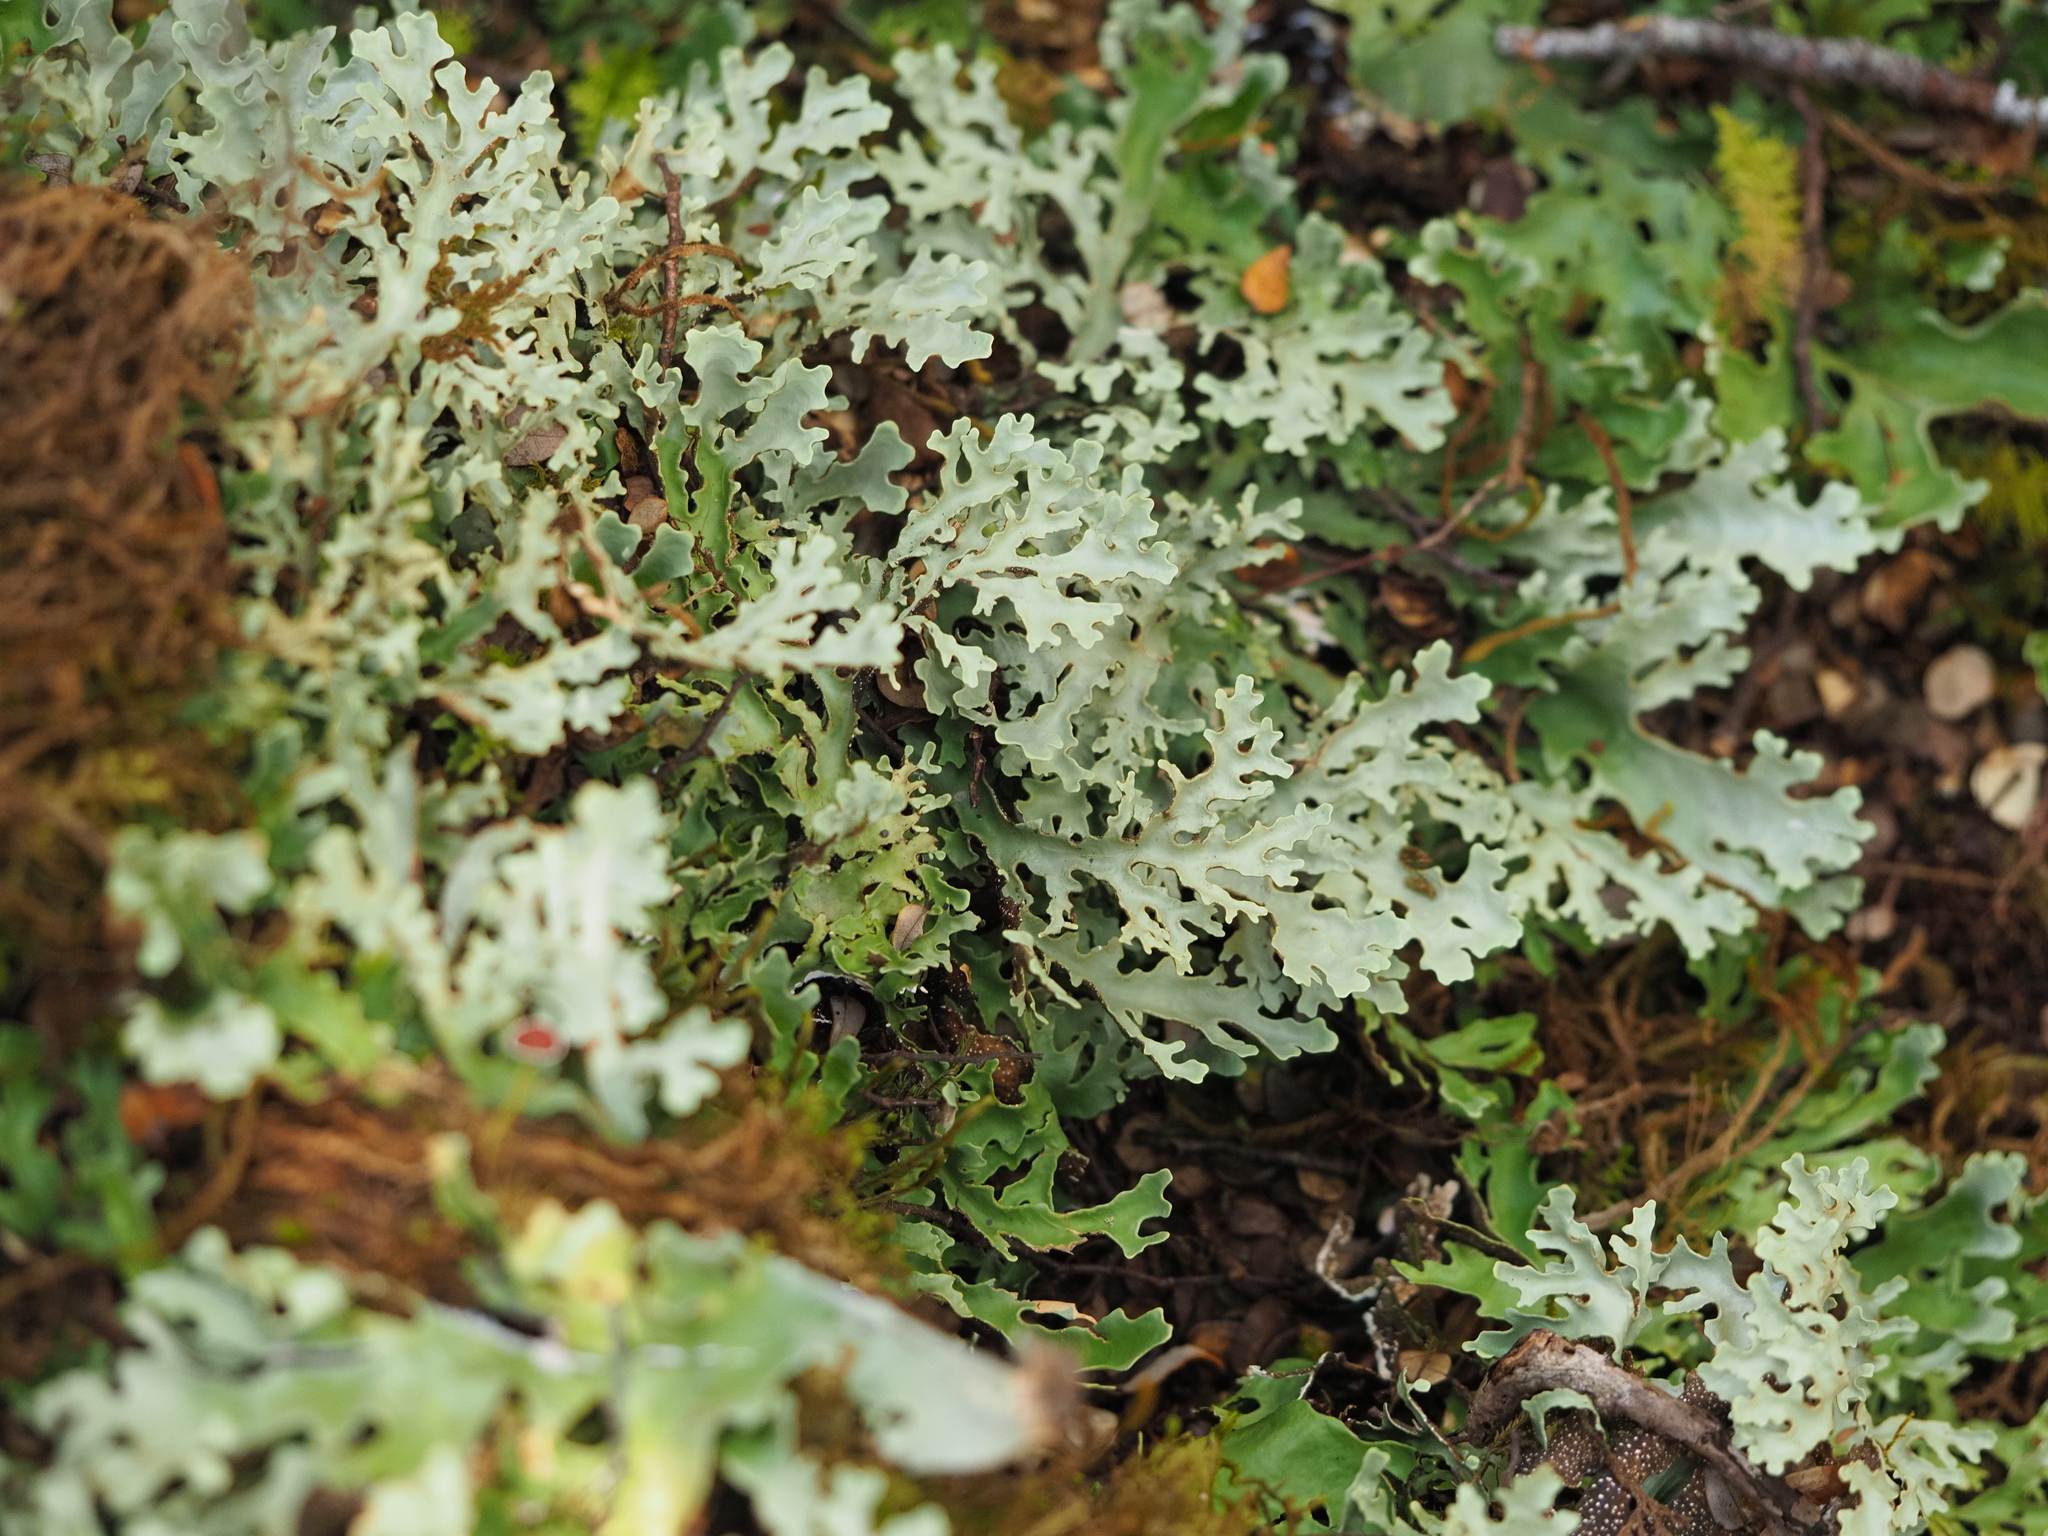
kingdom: Fungi
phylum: Ascomycota
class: Lecanoromycetes
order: Peltigerales
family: Lobariaceae
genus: Pseudocyphellaria
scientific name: Pseudocyphellaria homeophylla
